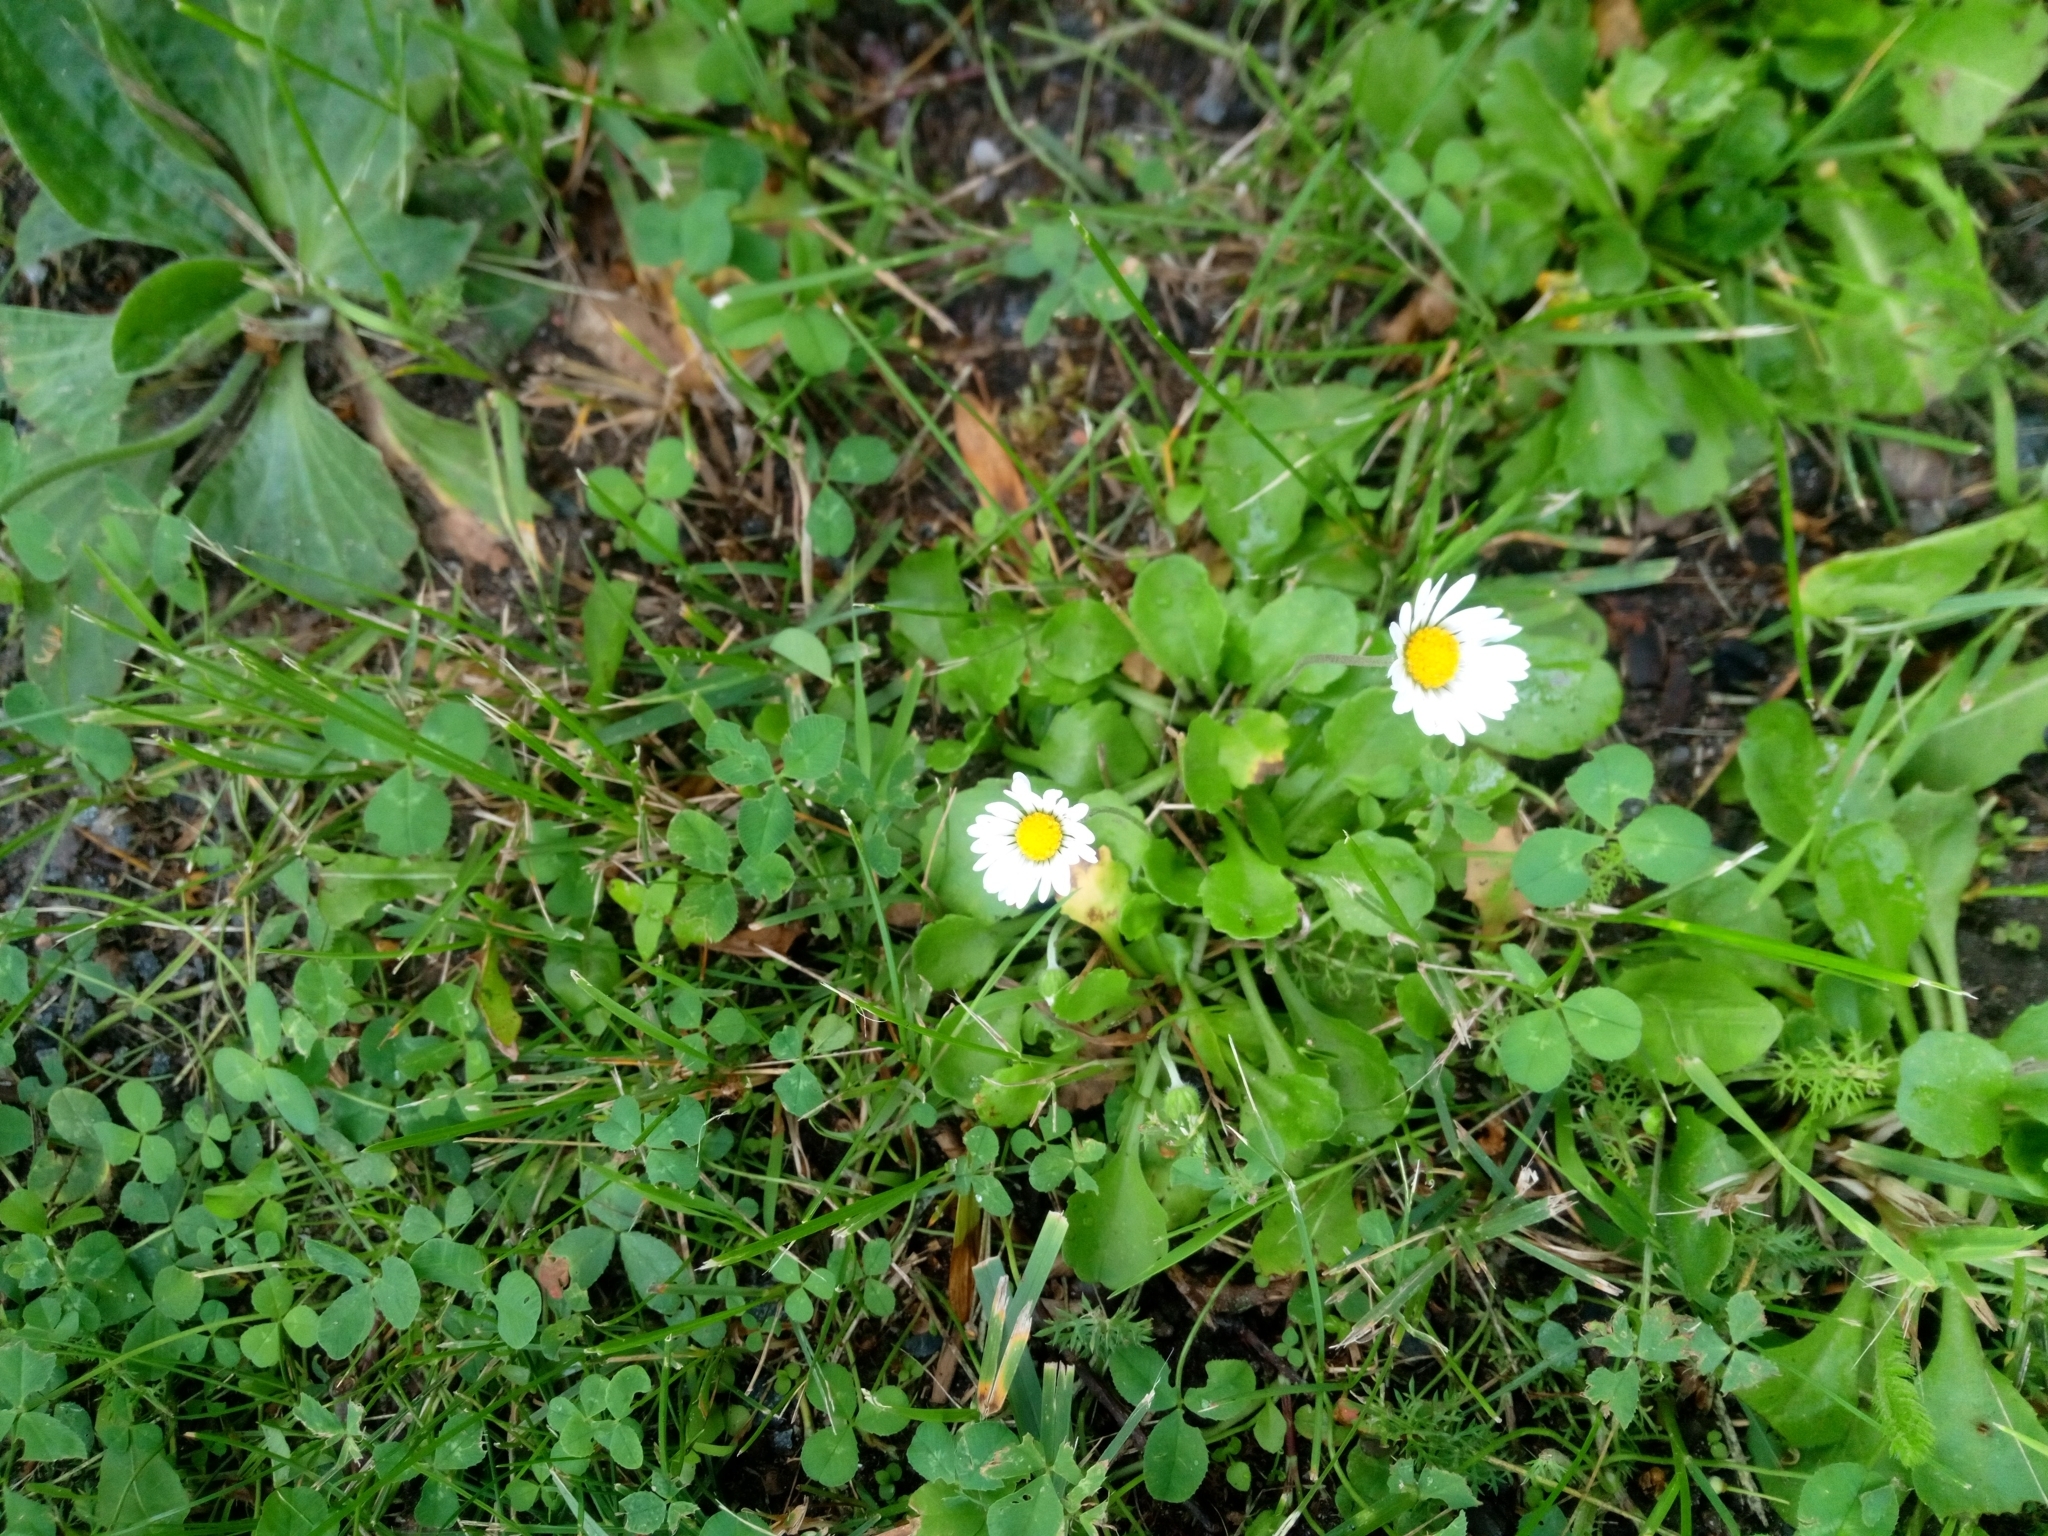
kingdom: Plantae
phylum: Tracheophyta
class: Magnoliopsida
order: Asterales
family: Asteraceae
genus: Bellis
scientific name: Bellis perennis
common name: Lawndaisy
